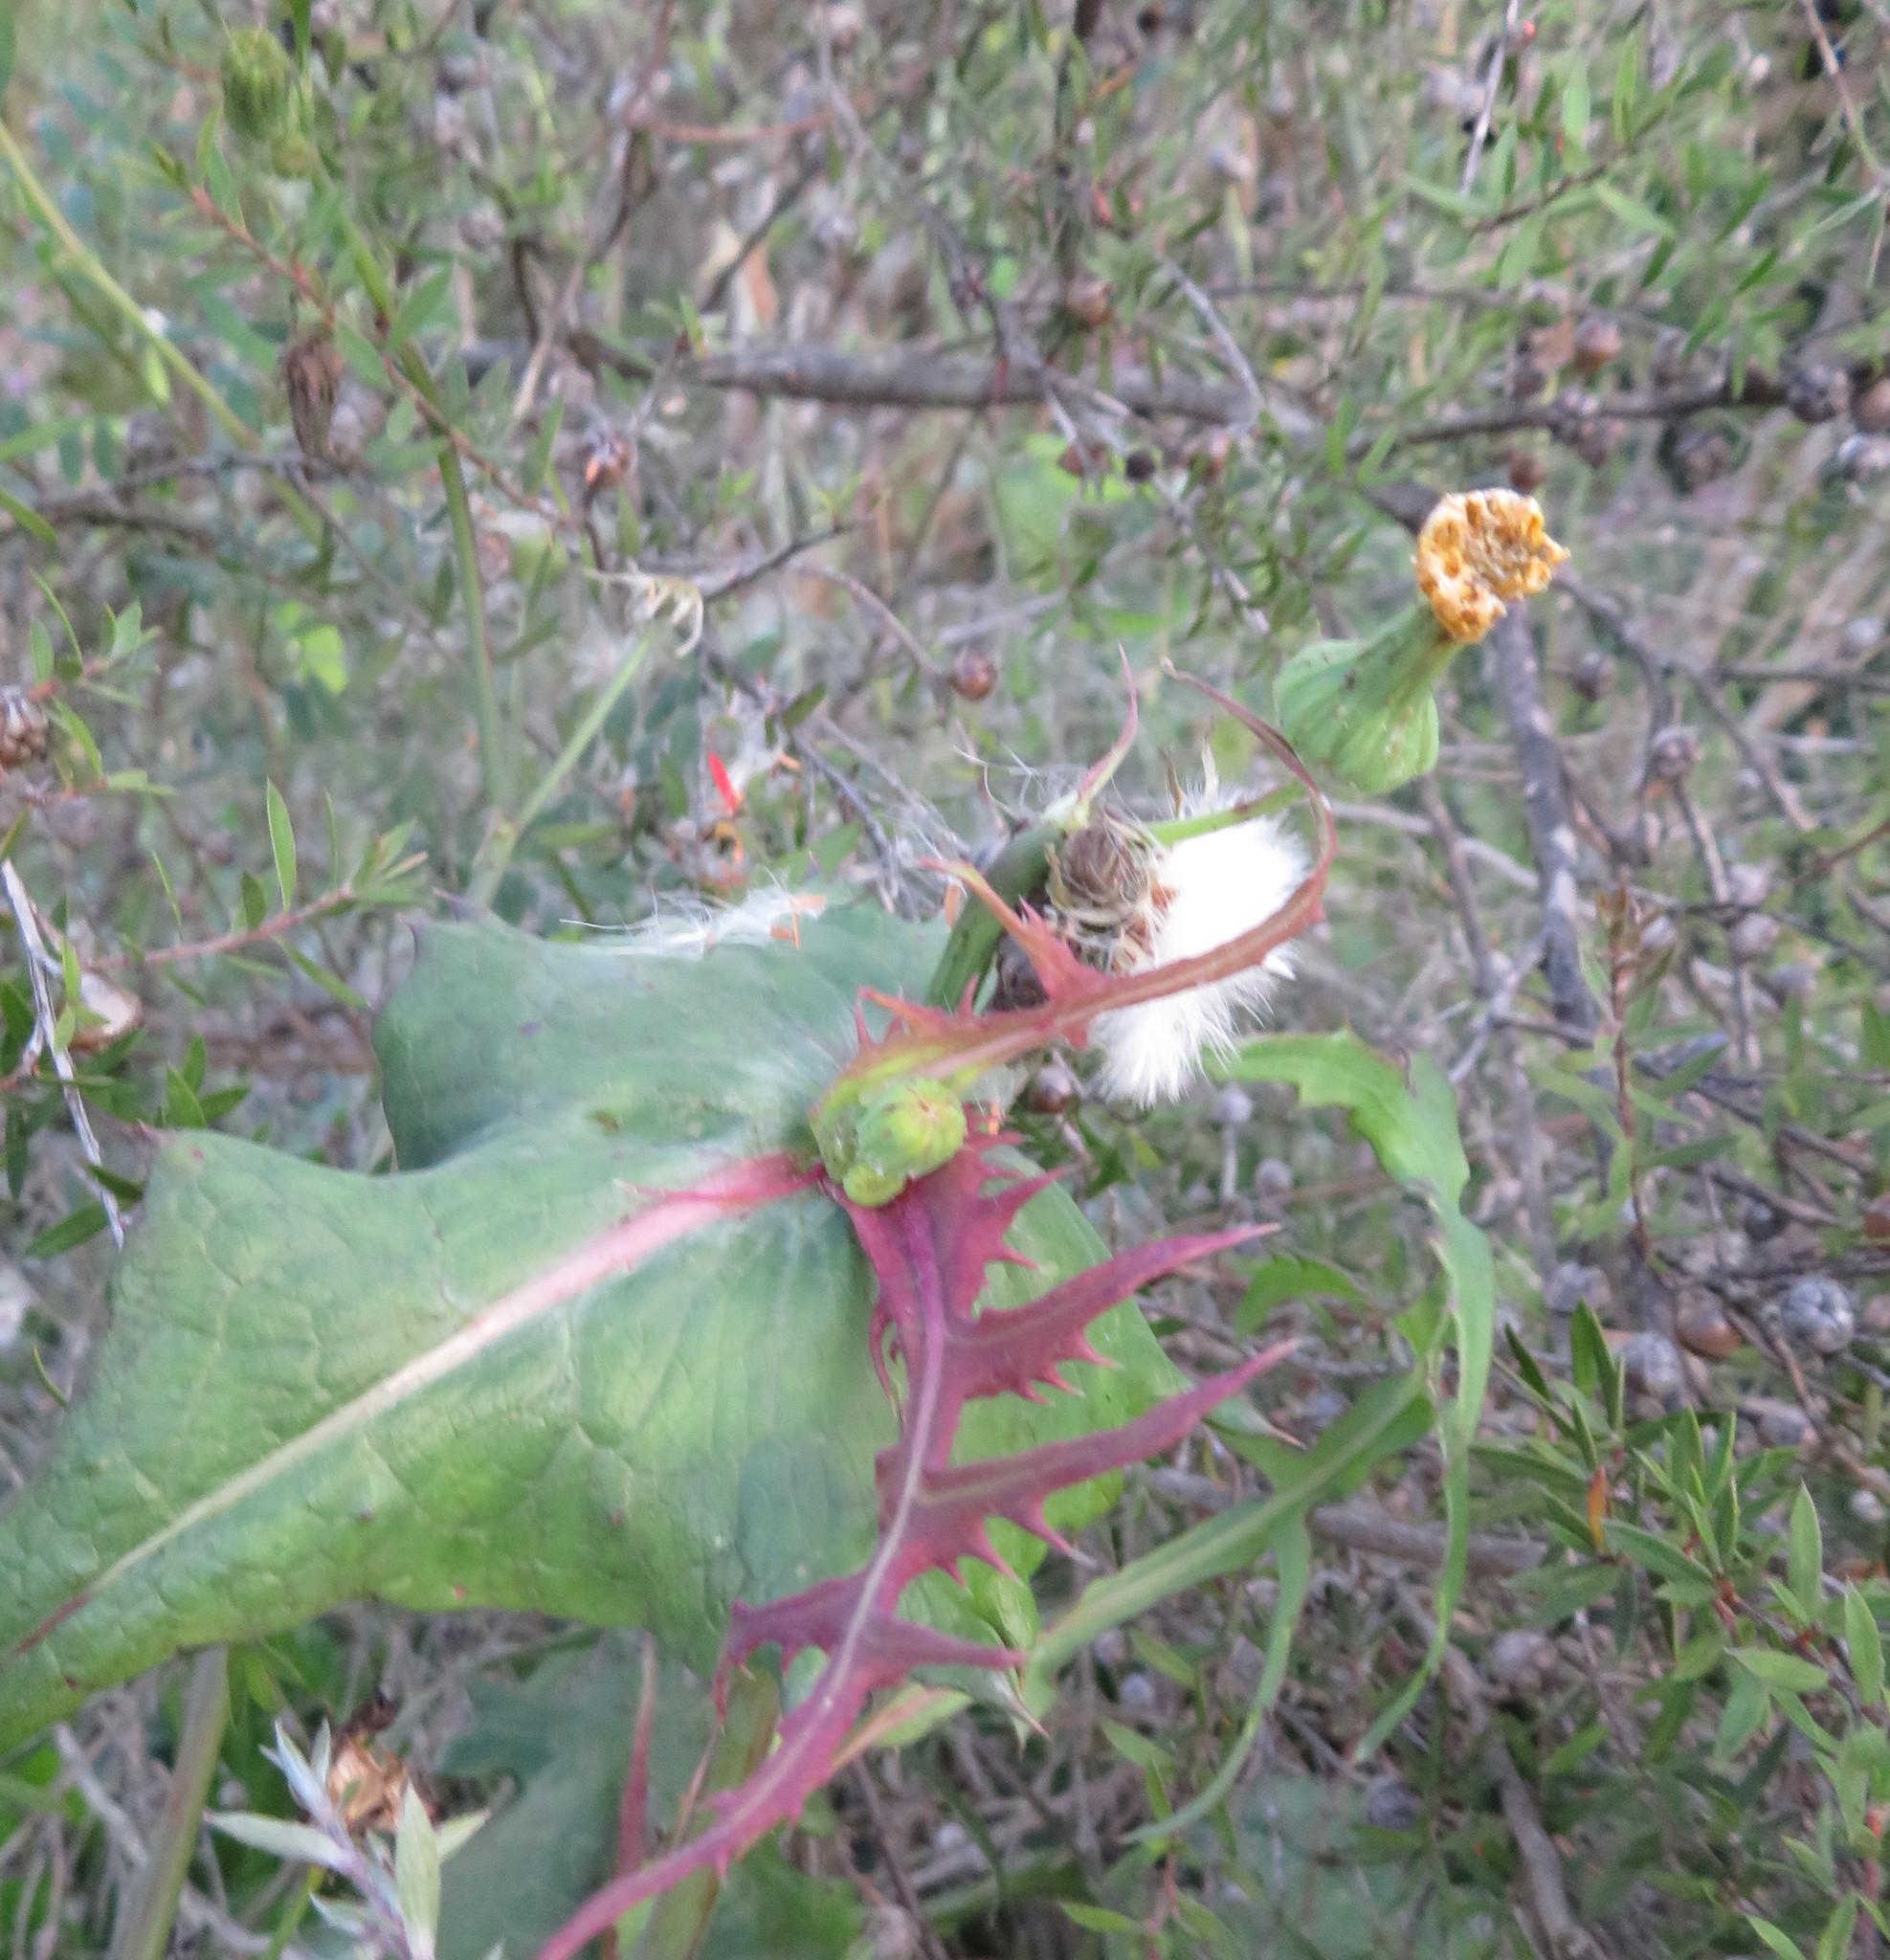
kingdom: Plantae
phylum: Tracheophyta
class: Magnoliopsida
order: Asterales
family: Asteraceae
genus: Sonchus
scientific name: Sonchus oleraceus
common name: Common sowthistle
